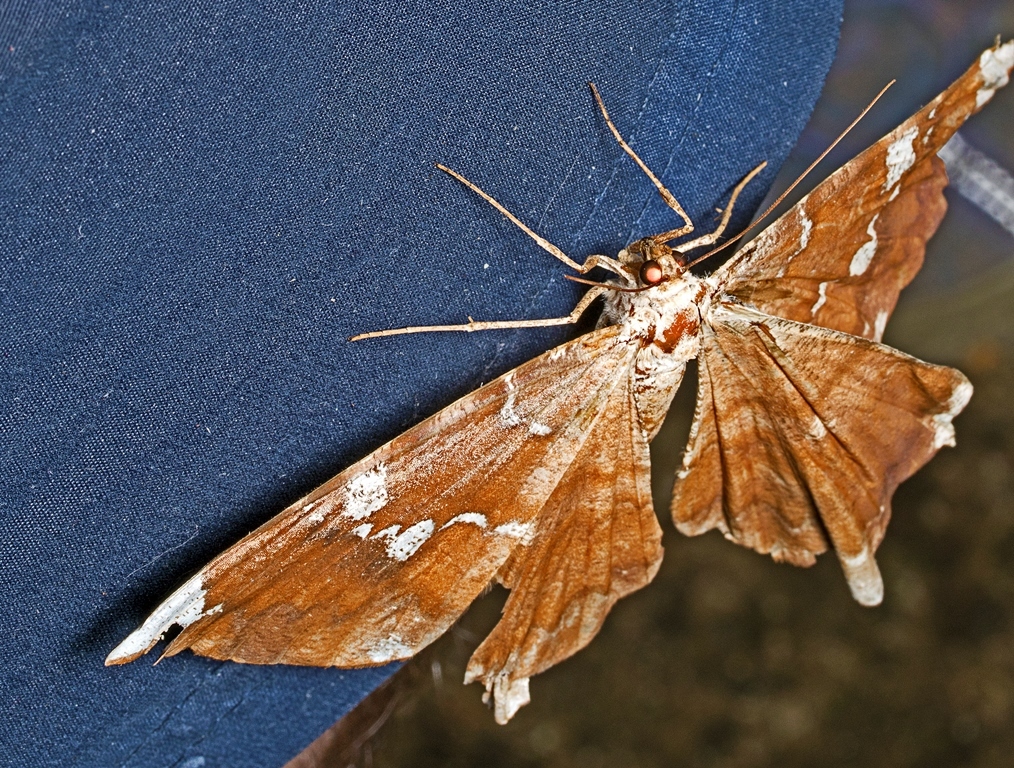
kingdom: Animalia
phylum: Arthropoda
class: Insecta
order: Lepidoptera
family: Geometridae
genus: Amblychia
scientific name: Amblychia angeronaria
